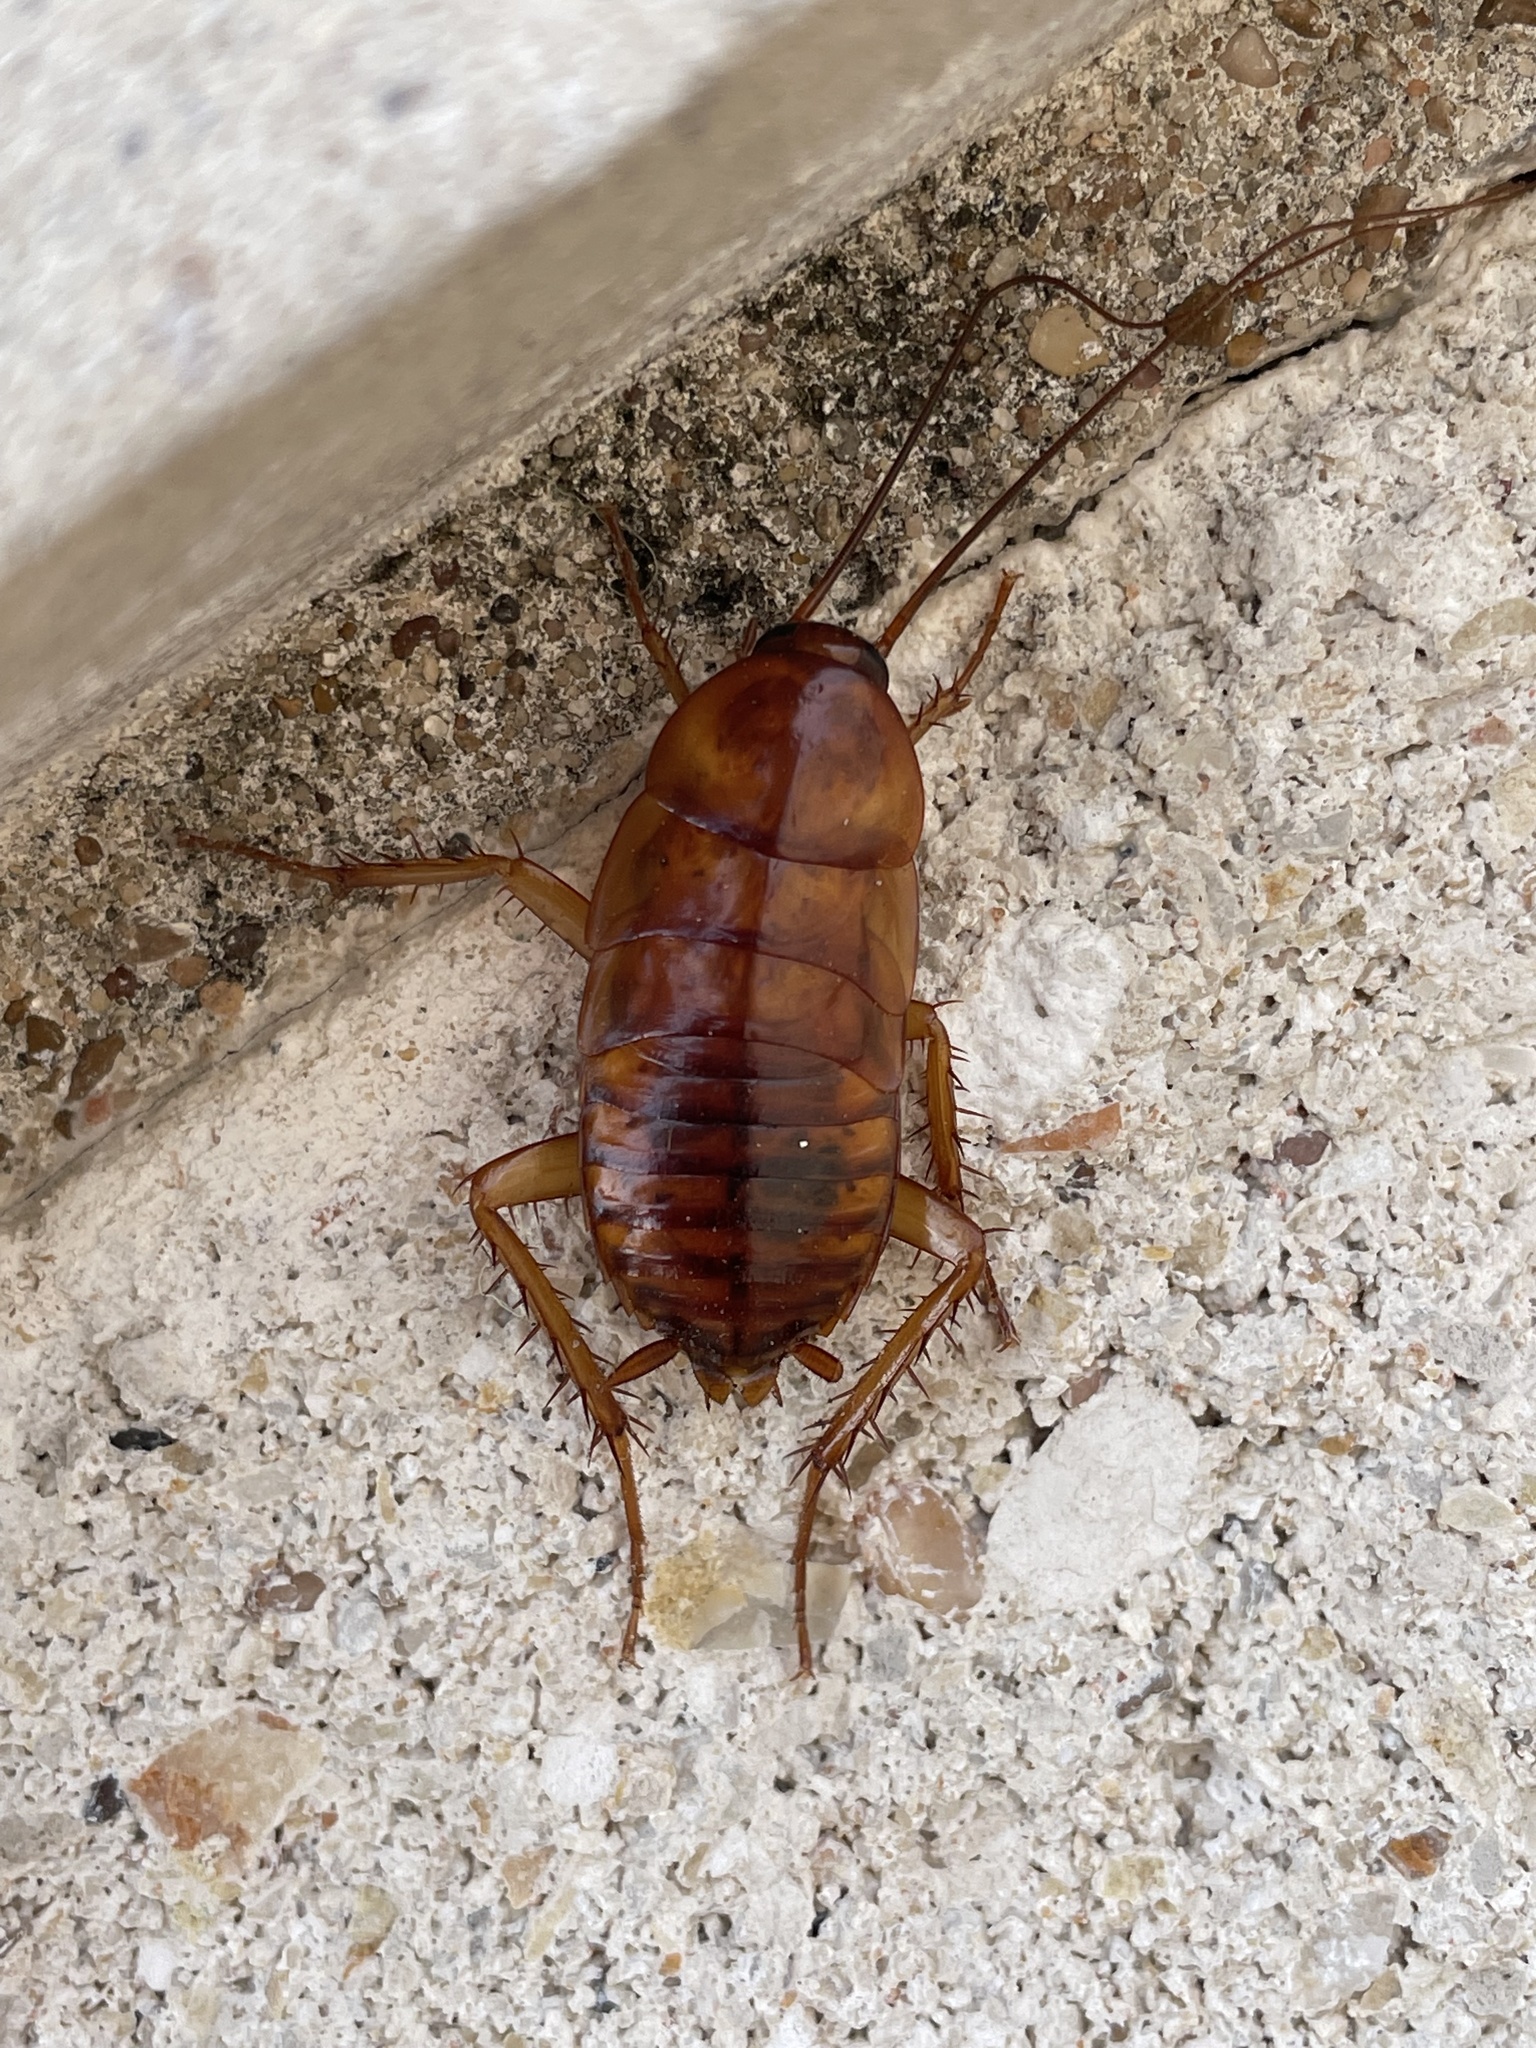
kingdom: Animalia
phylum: Arthropoda
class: Insecta
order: Blattodea
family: Blattidae
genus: Periplaneta
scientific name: Periplaneta americana
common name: American cockroach
